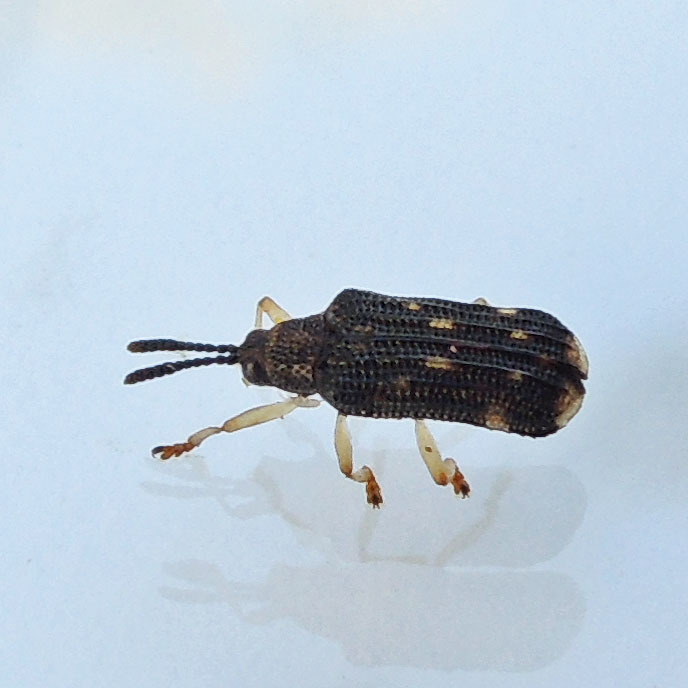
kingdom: Animalia
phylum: Arthropoda
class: Insecta
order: Coleoptera
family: Chrysomelidae
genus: Sumitrosis
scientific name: Sumitrosis inaequalis
